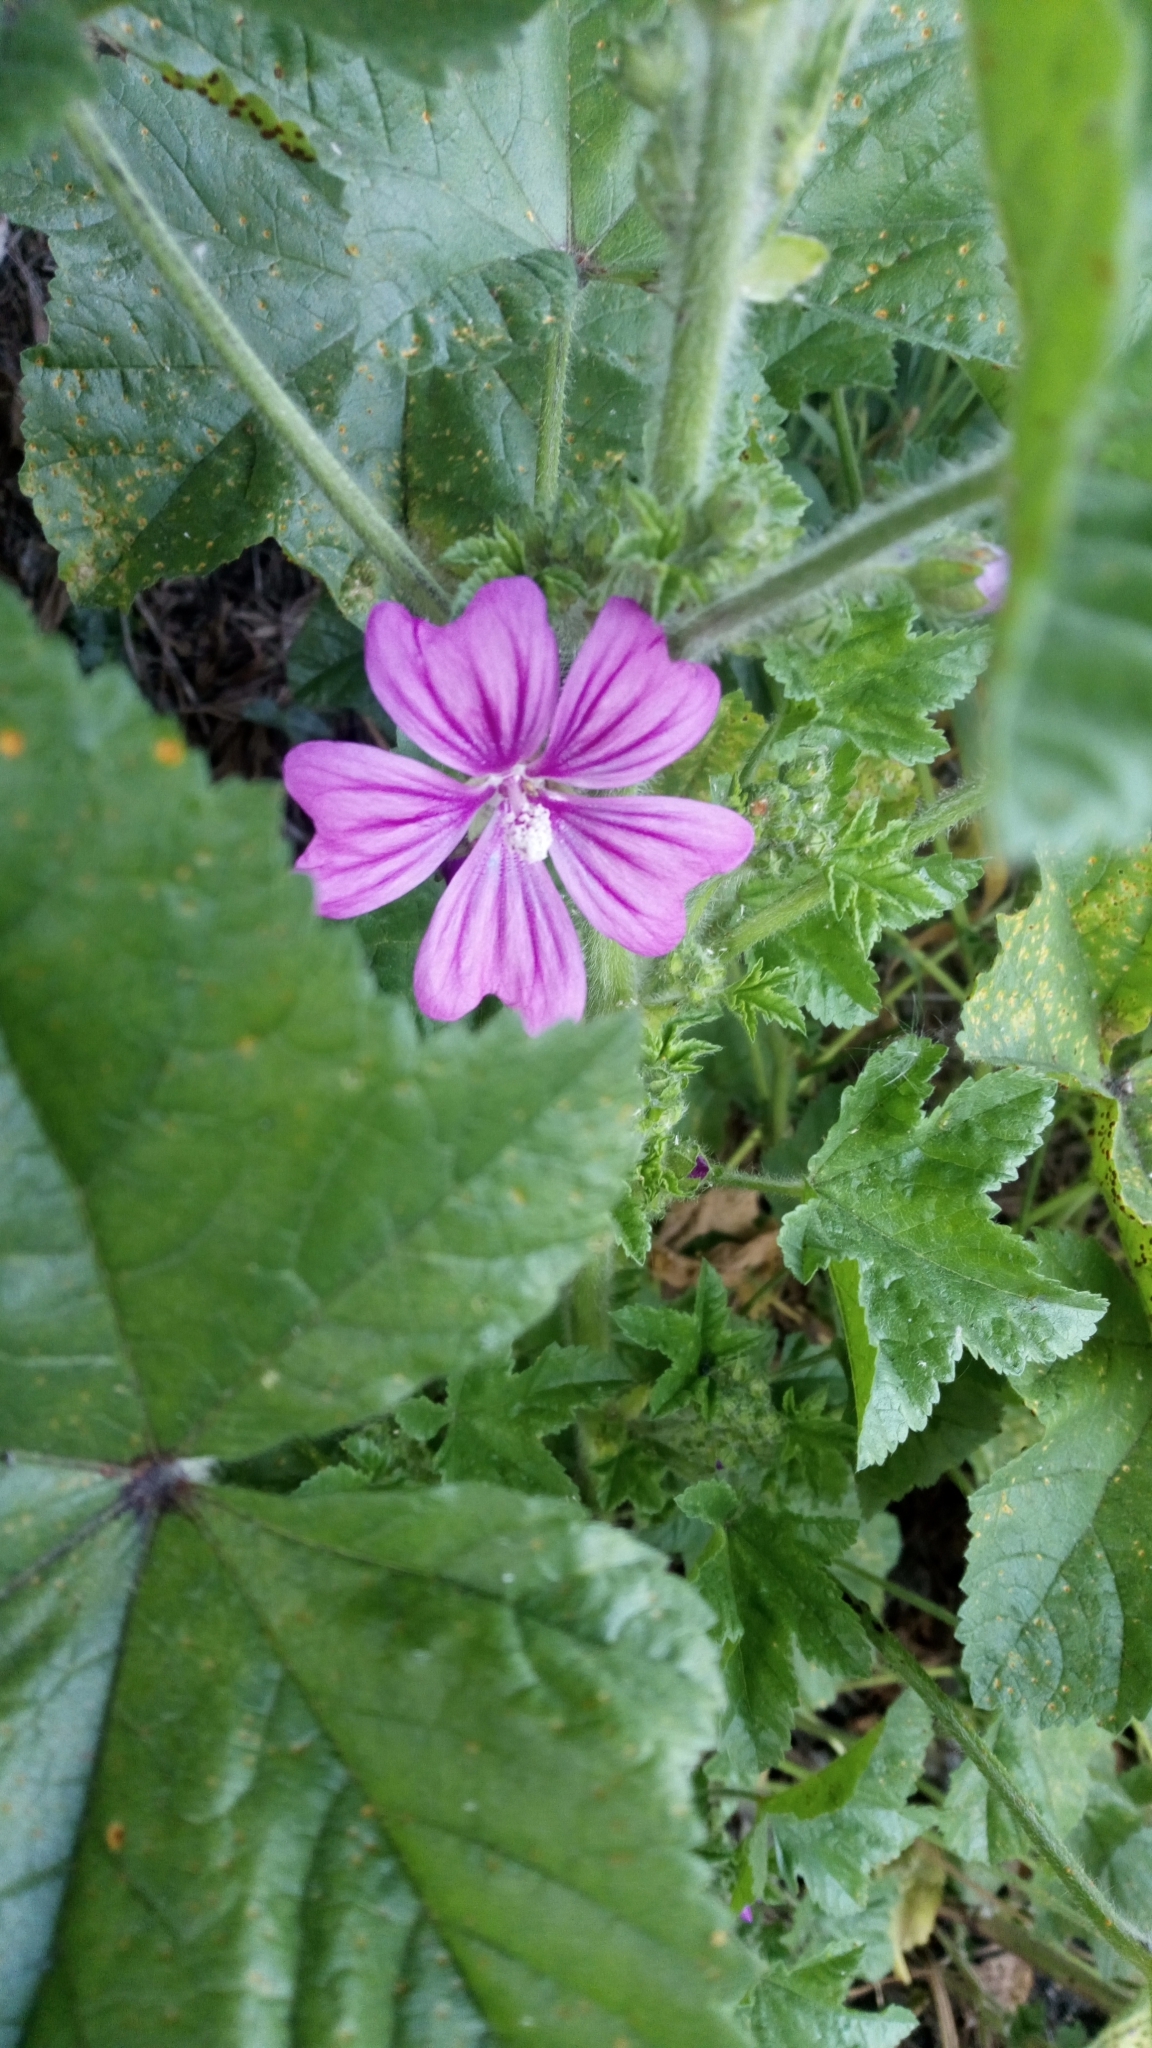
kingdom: Plantae
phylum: Tracheophyta
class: Magnoliopsida
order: Malvales
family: Malvaceae
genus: Malva
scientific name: Malva sylvestris
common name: Common mallow
